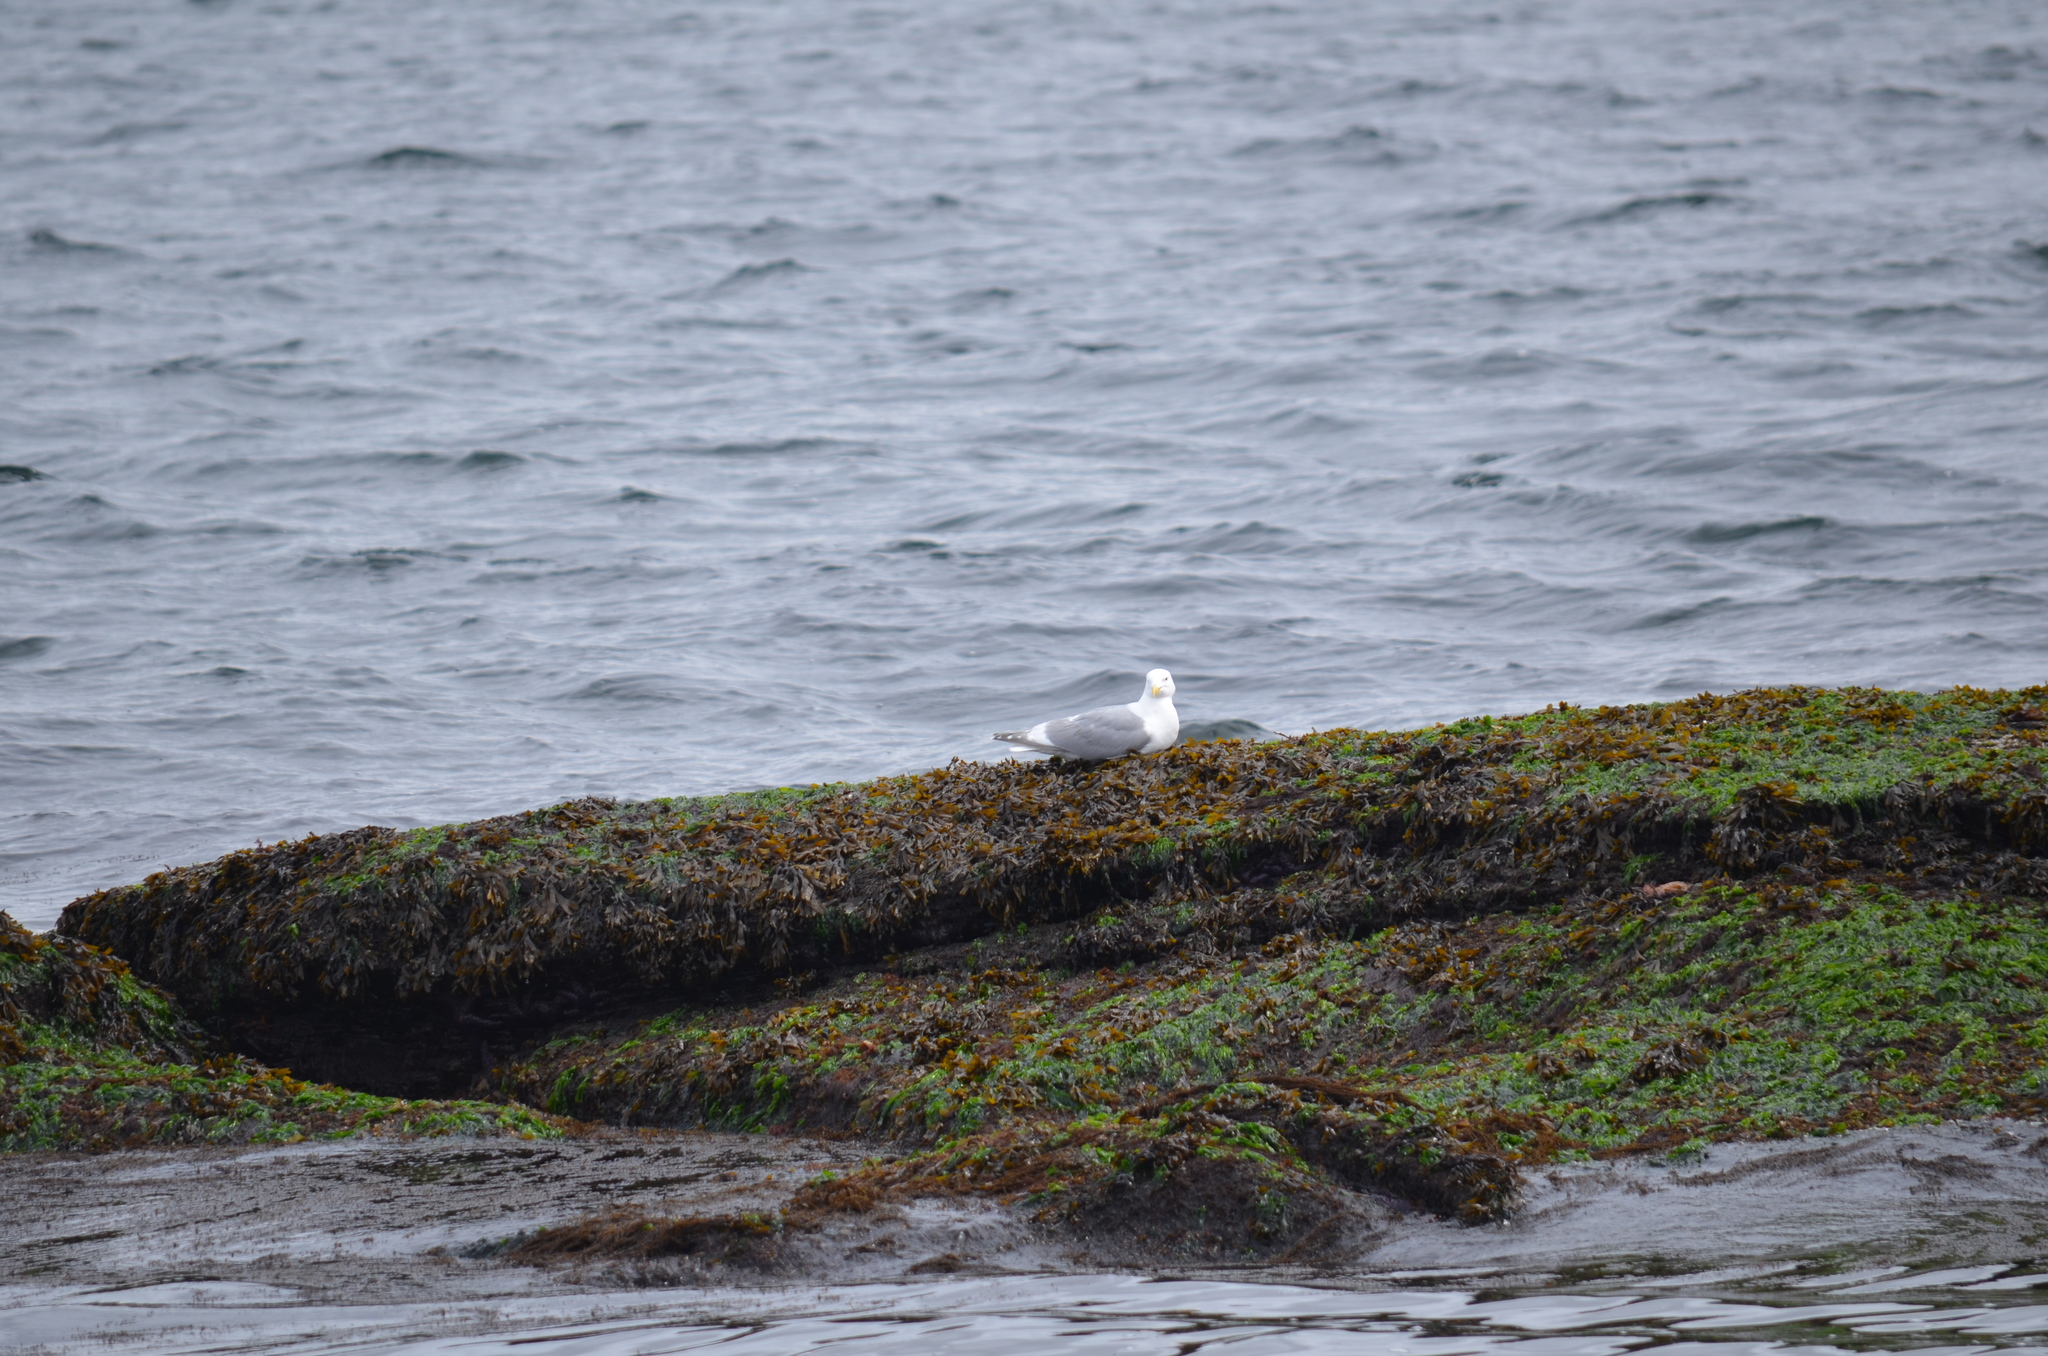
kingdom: Animalia
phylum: Chordata
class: Aves
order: Charadriiformes
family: Laridae
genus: Larus
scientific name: Larus
